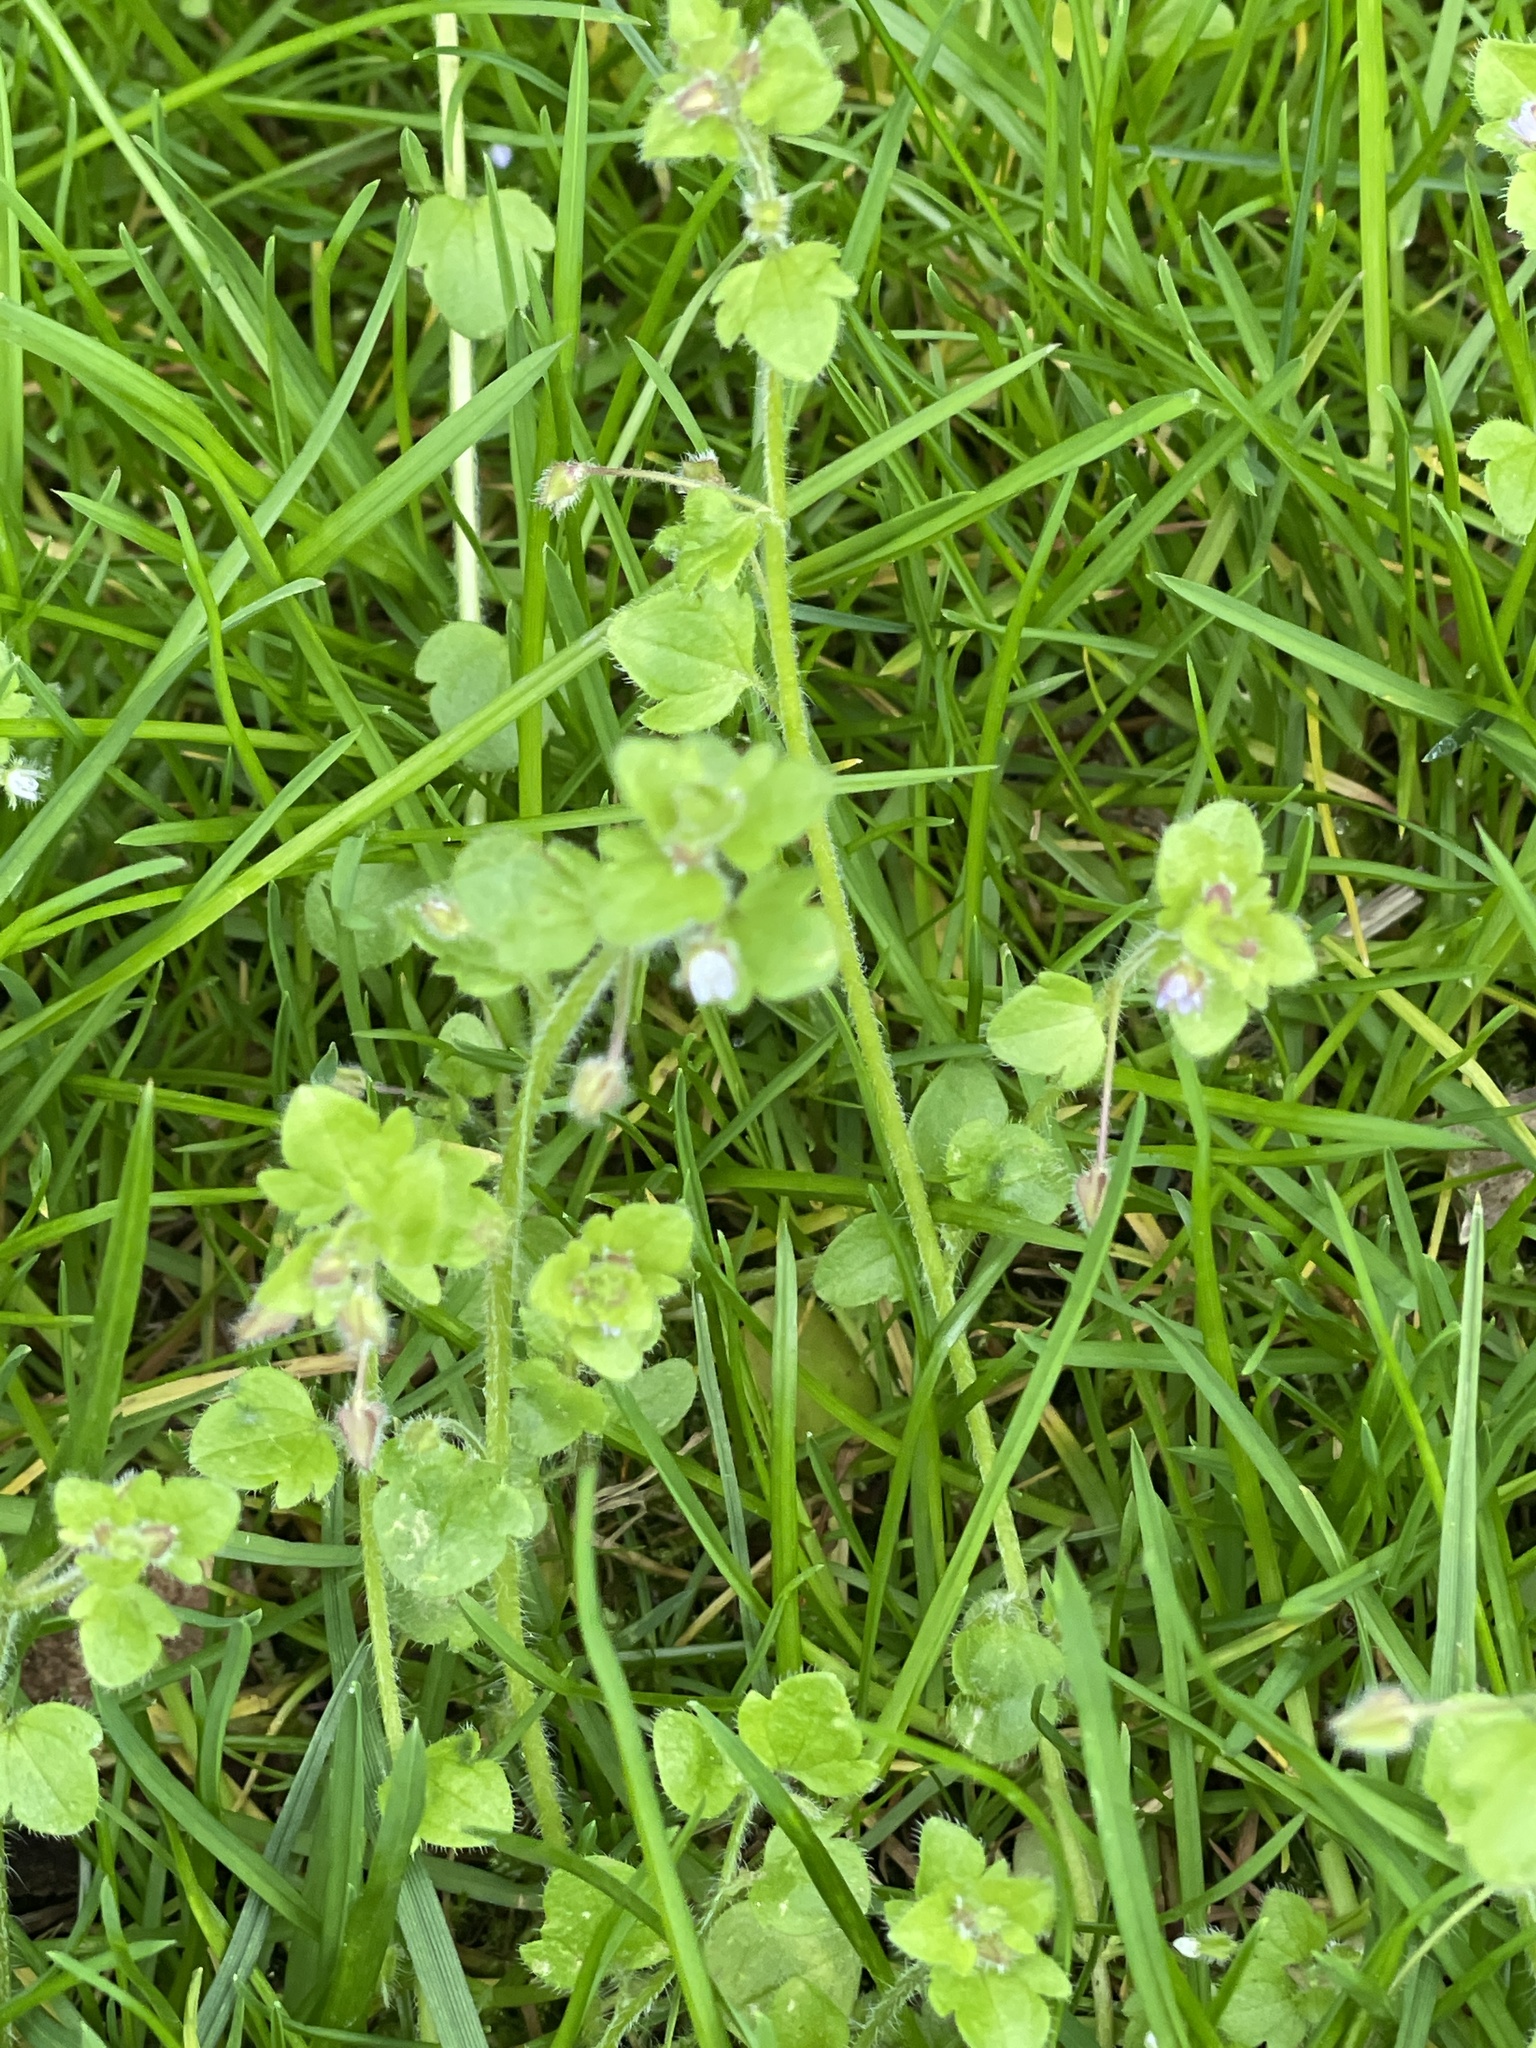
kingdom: Plantae
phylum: Tracheophyta
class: Magnoliopsida
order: Lamiales
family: Plantaginaceae
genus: Veronica
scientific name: Veronica sublobata
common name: False ivy-leaved speedwell
